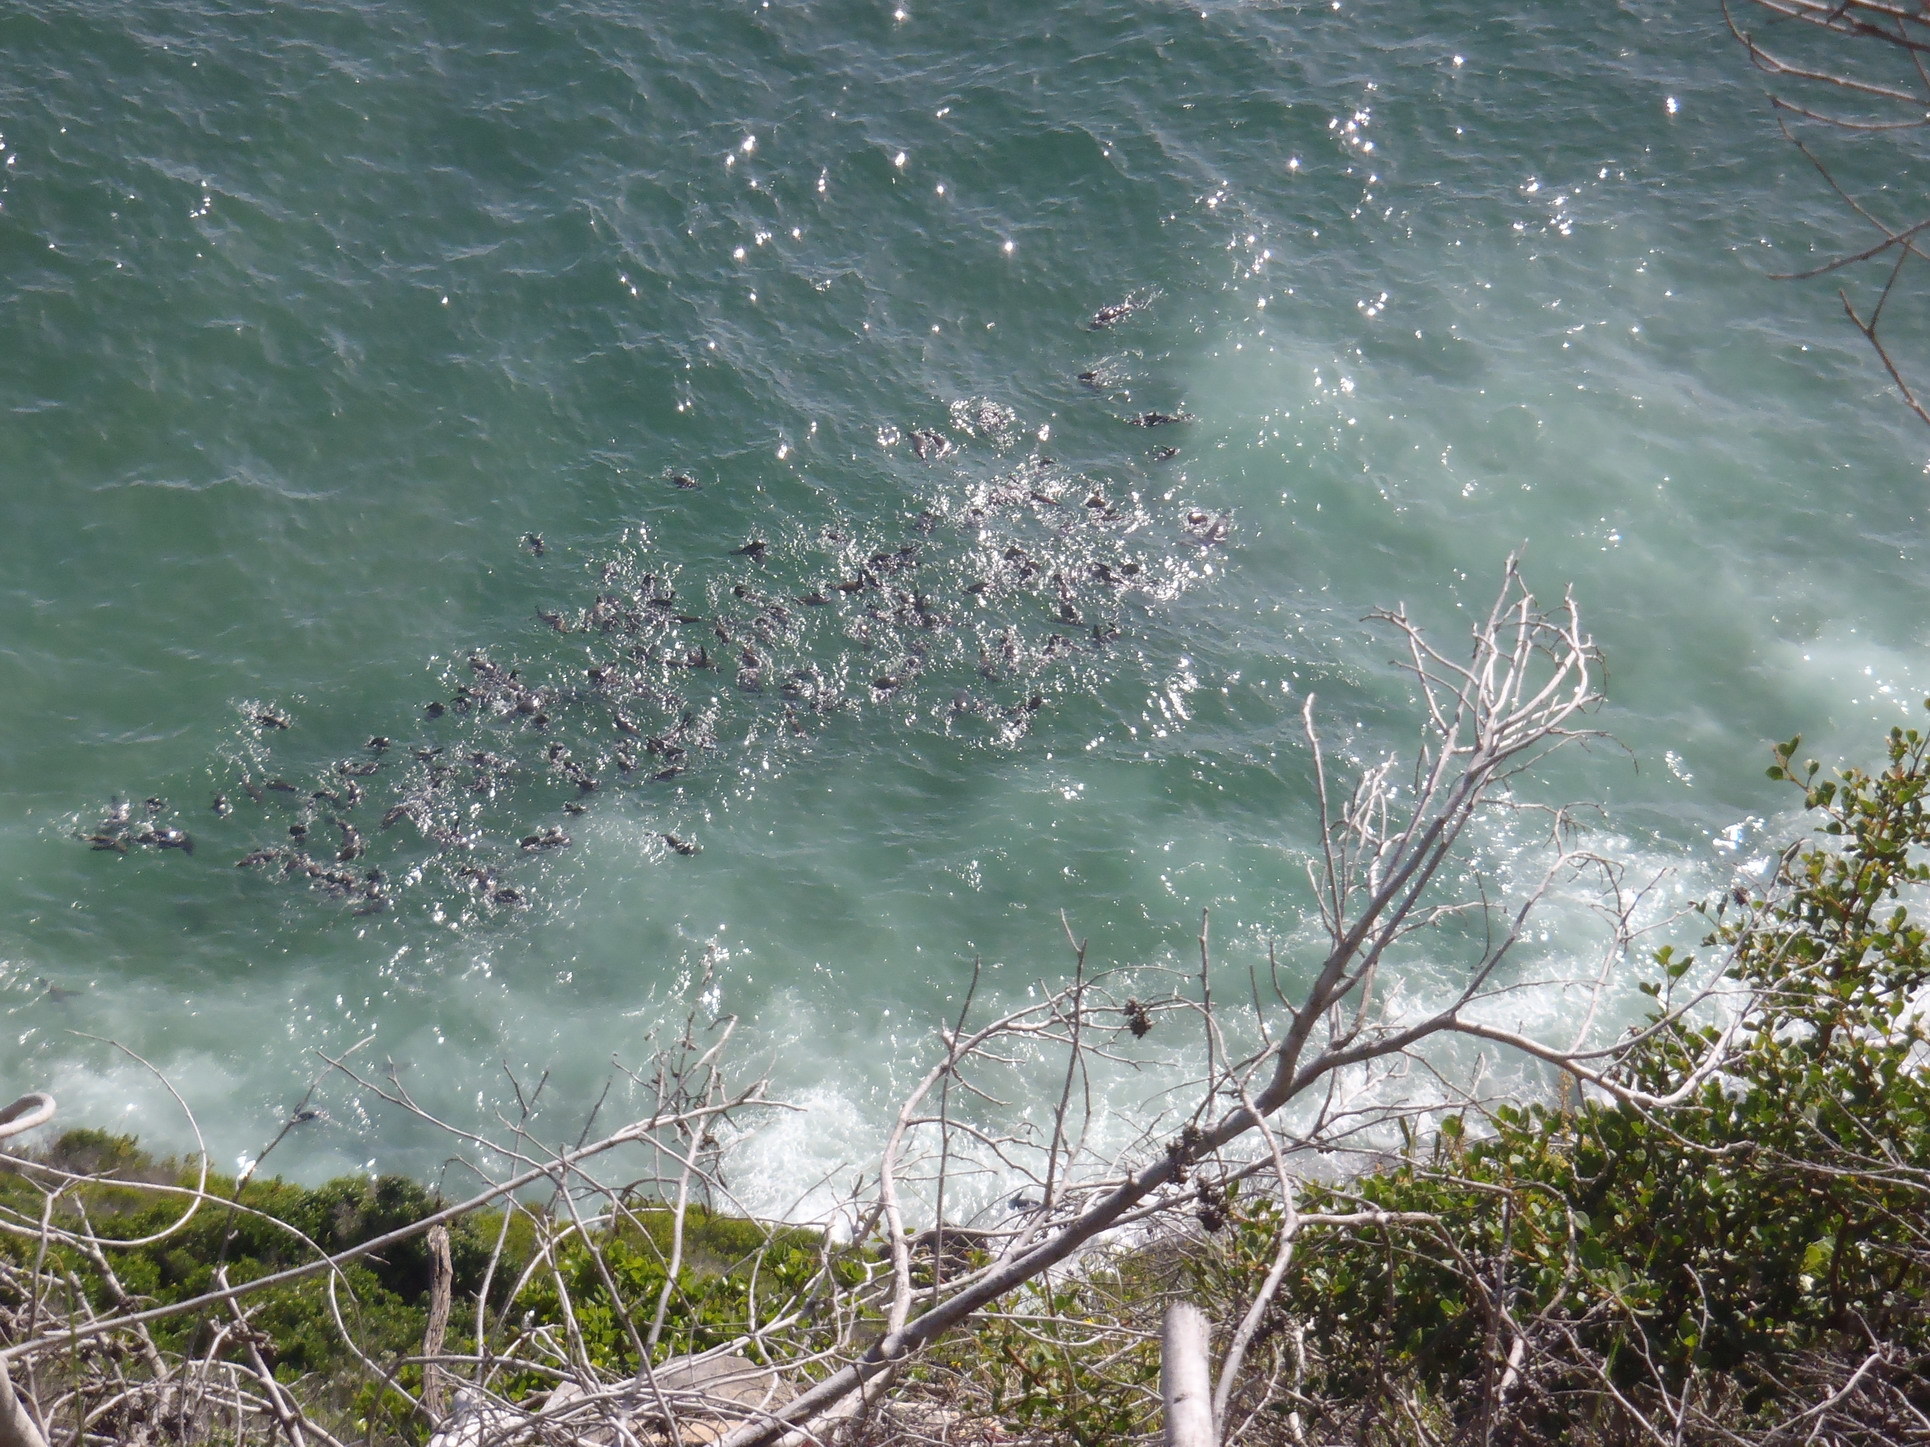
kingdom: Animalia
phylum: Chordata
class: Mammalia
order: Carnivora
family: Otariidae
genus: Arctocephalus
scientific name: Arctocephalus pusillus
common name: Brown fur seal
